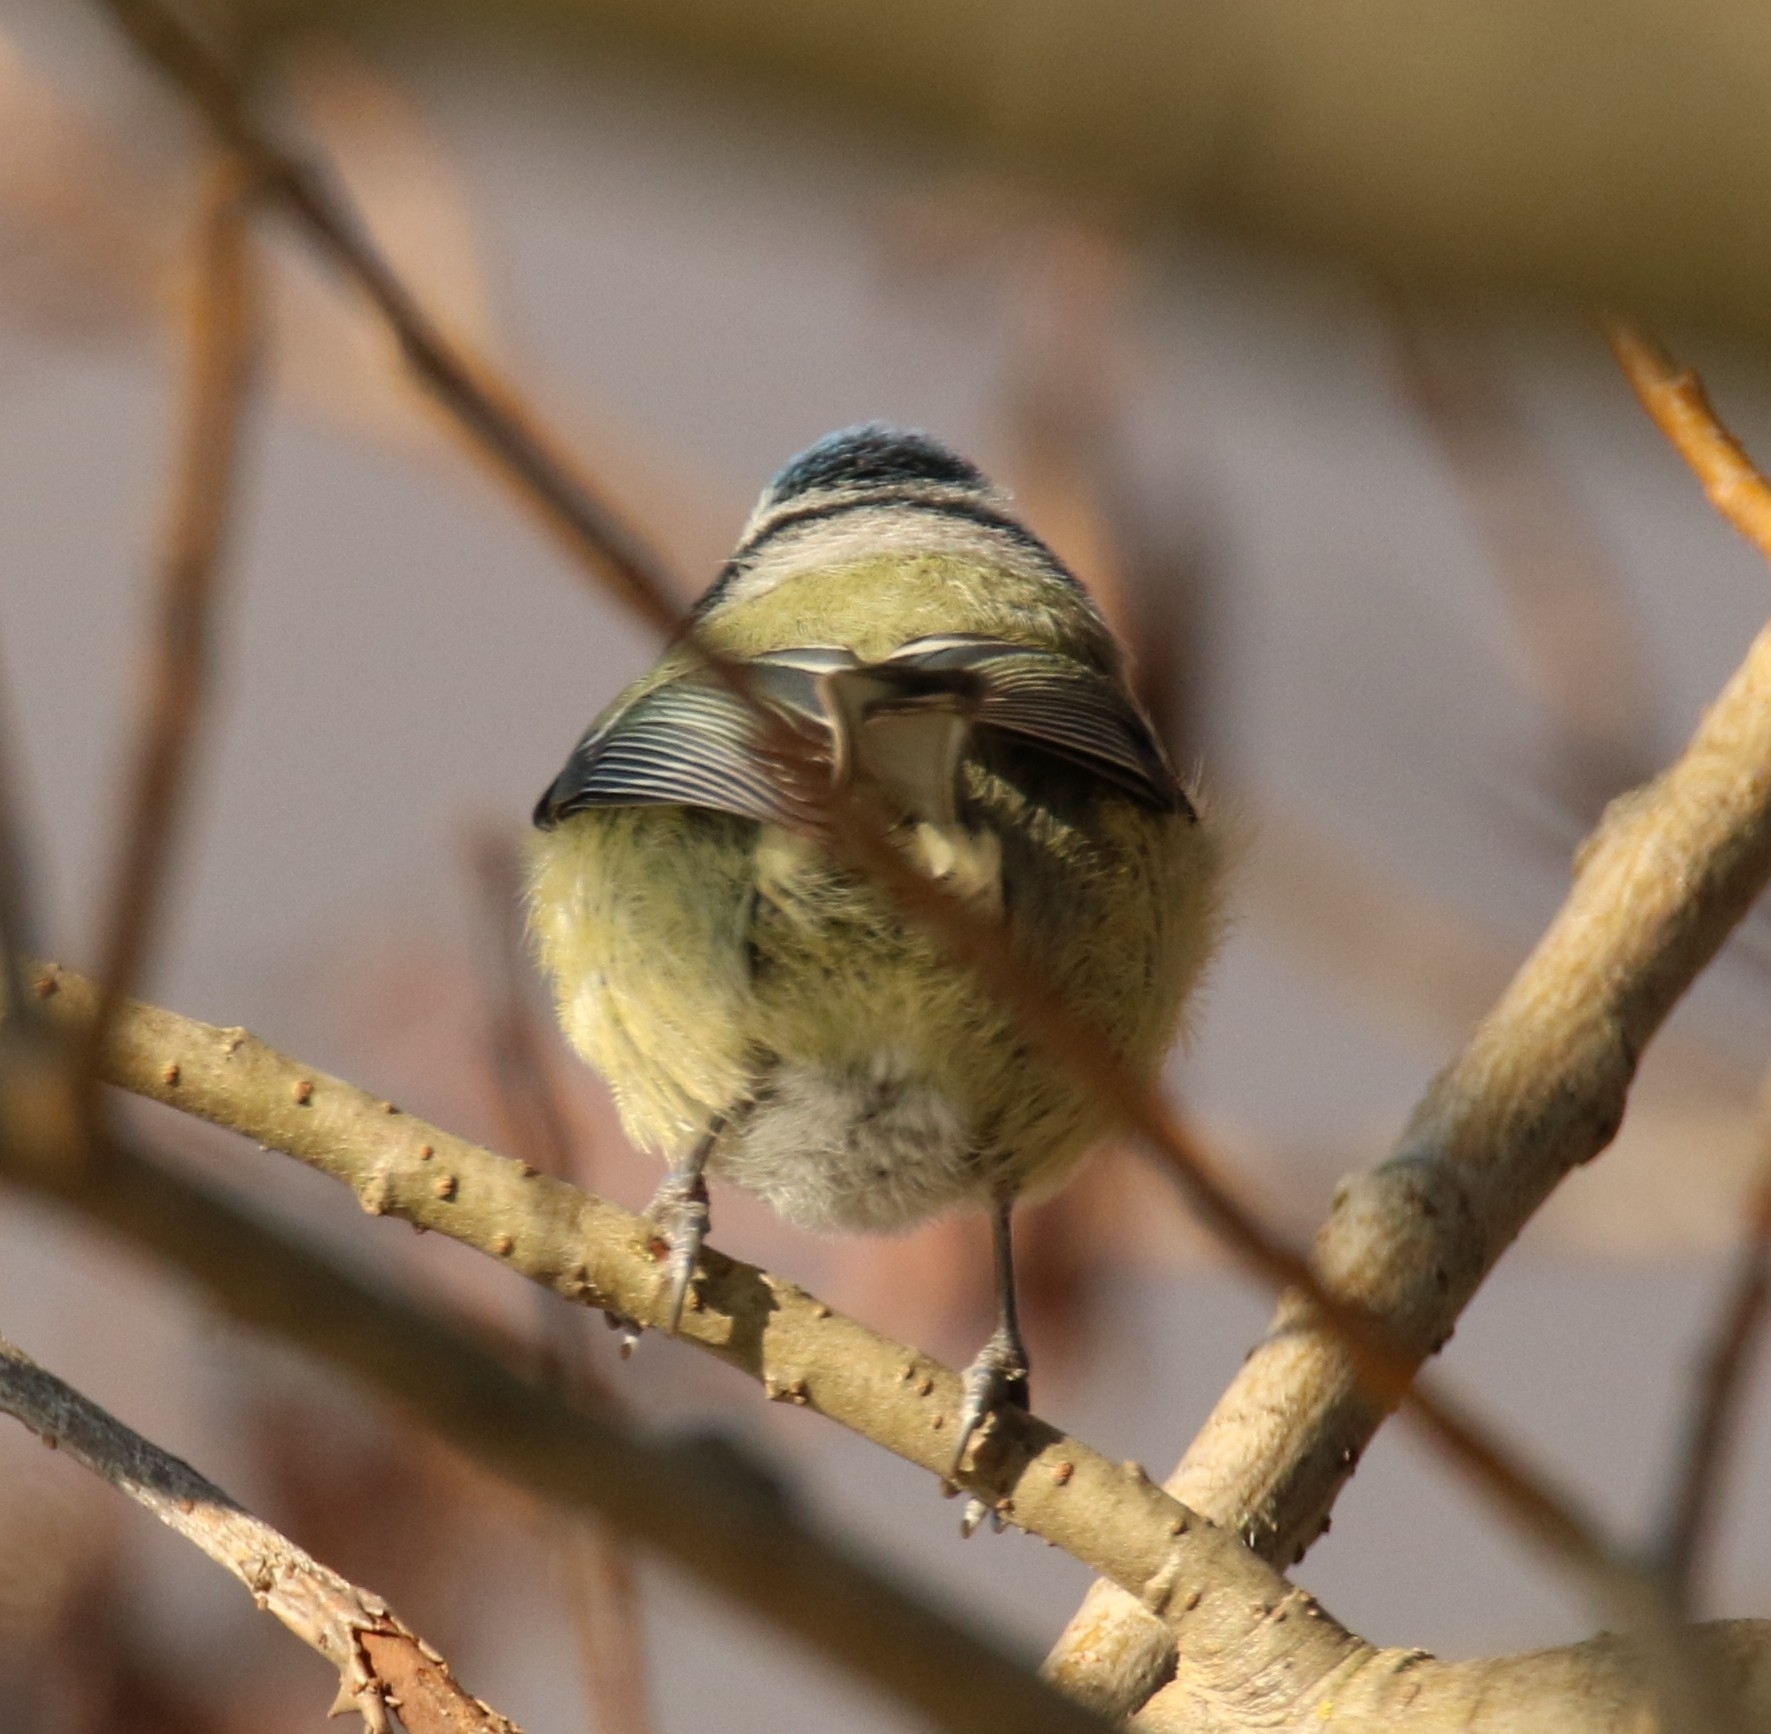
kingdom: Animalia
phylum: Chordata
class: Aves
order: Passeriformes
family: Paridae
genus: Cyanistes
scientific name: Cyanistes caeruleus
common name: Eurasian blue tit
